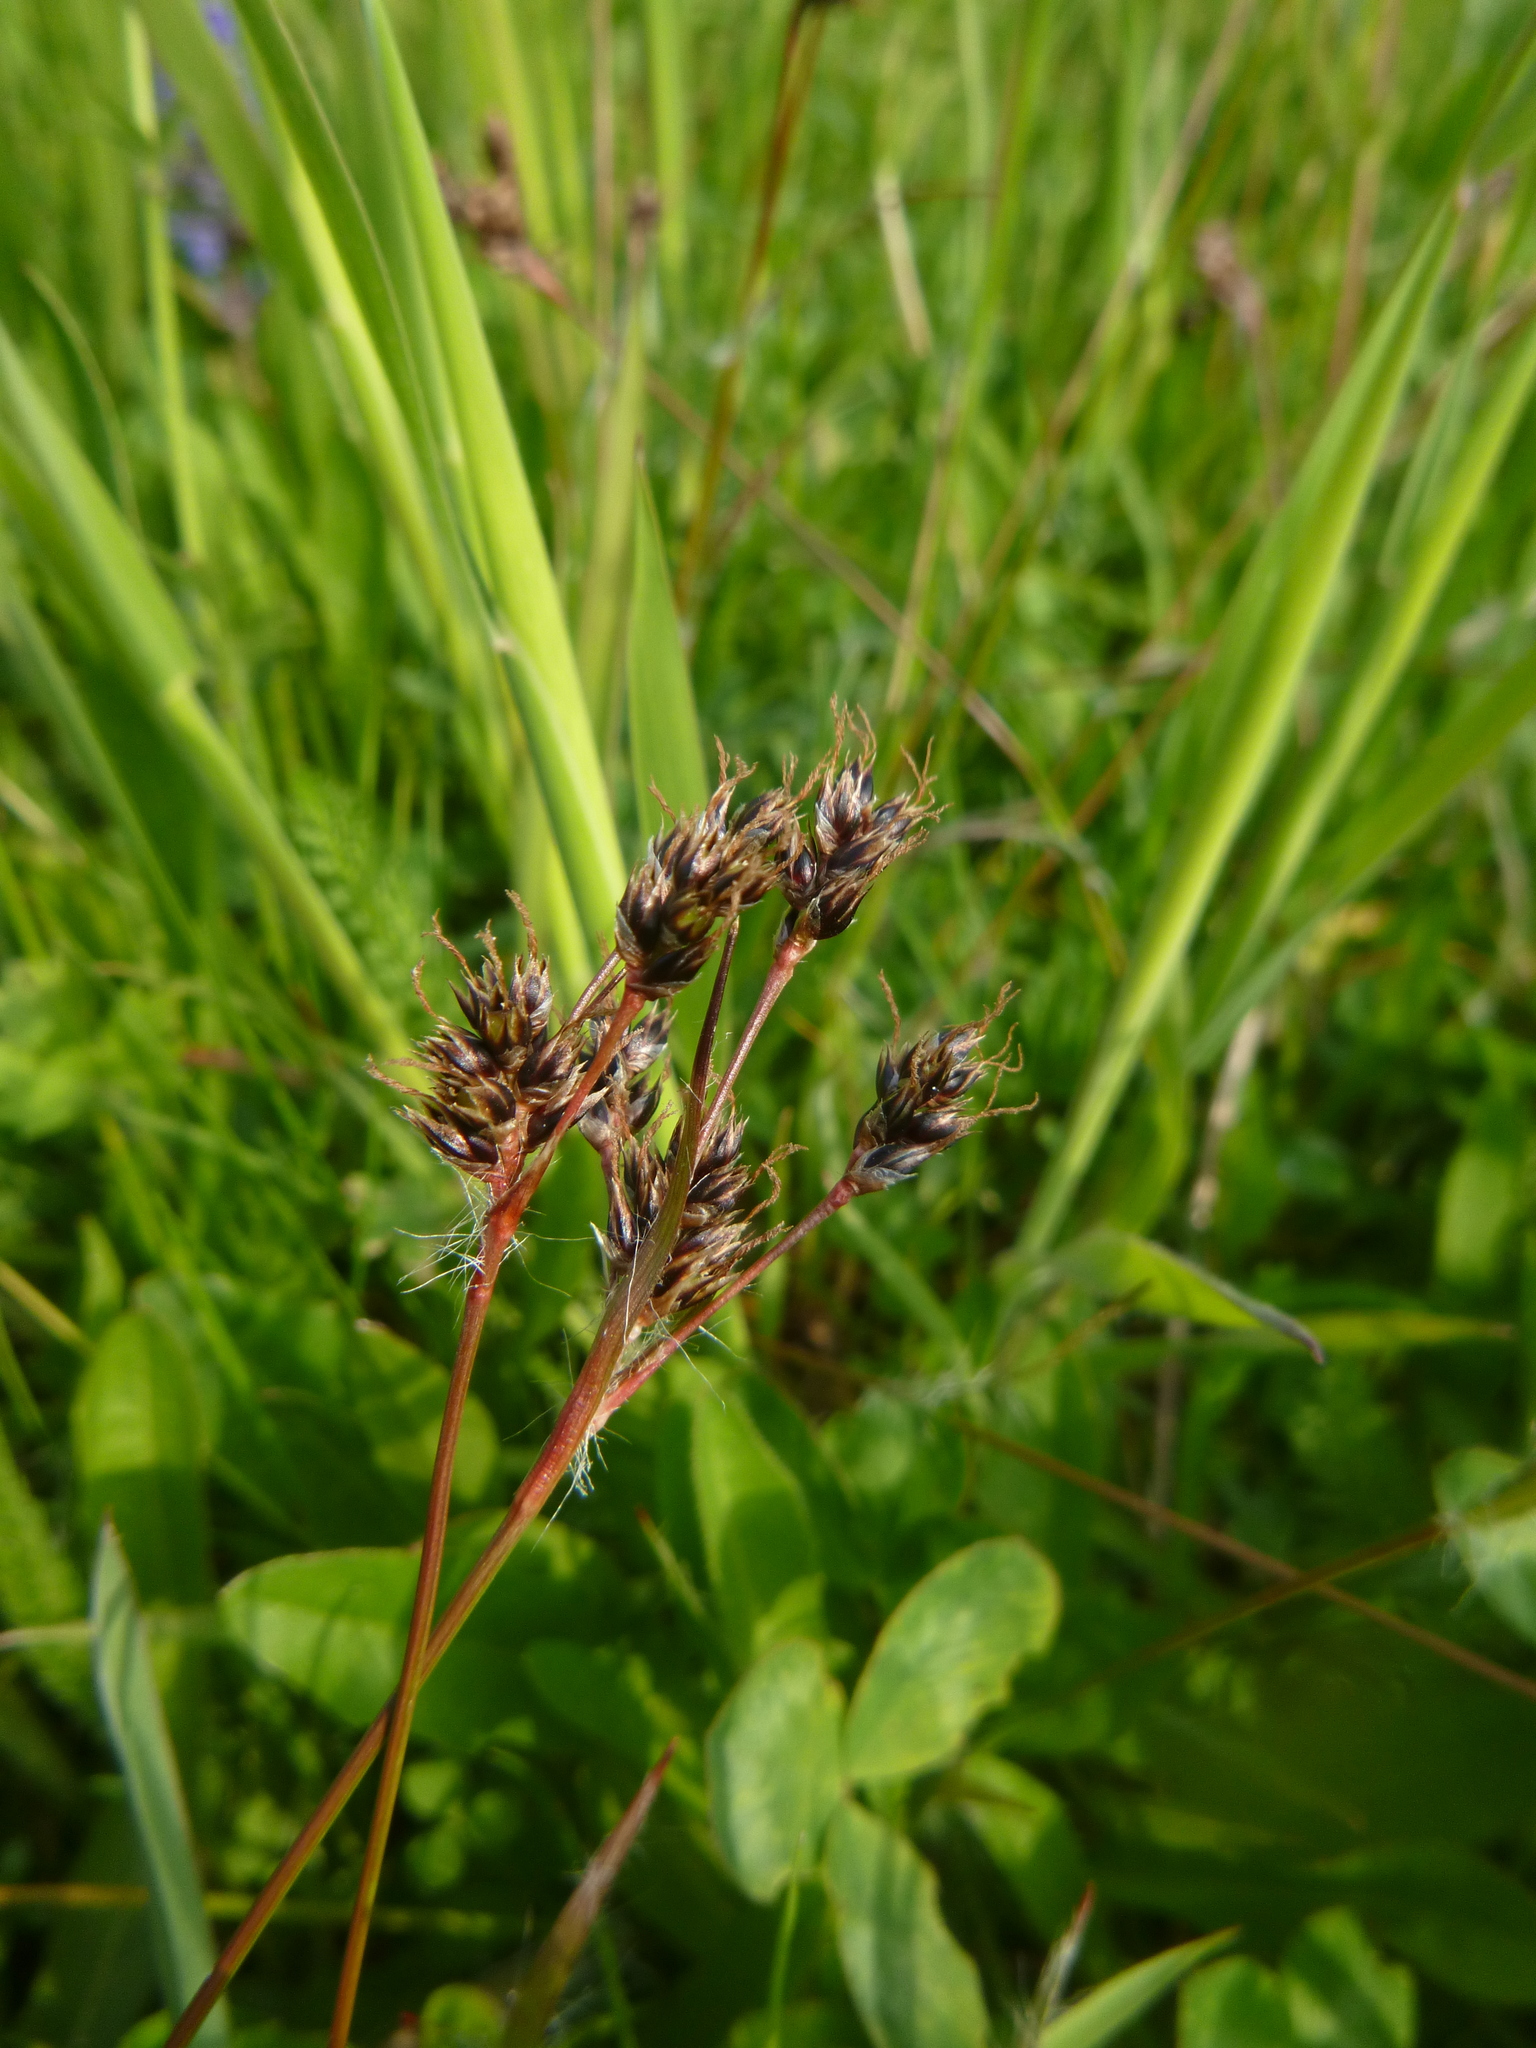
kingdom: Plantae
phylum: Tracheophyta
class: Liliopsida
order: Poales
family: Juncaceae
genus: Luzula
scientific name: Luzula campestris
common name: Field wood-rush
